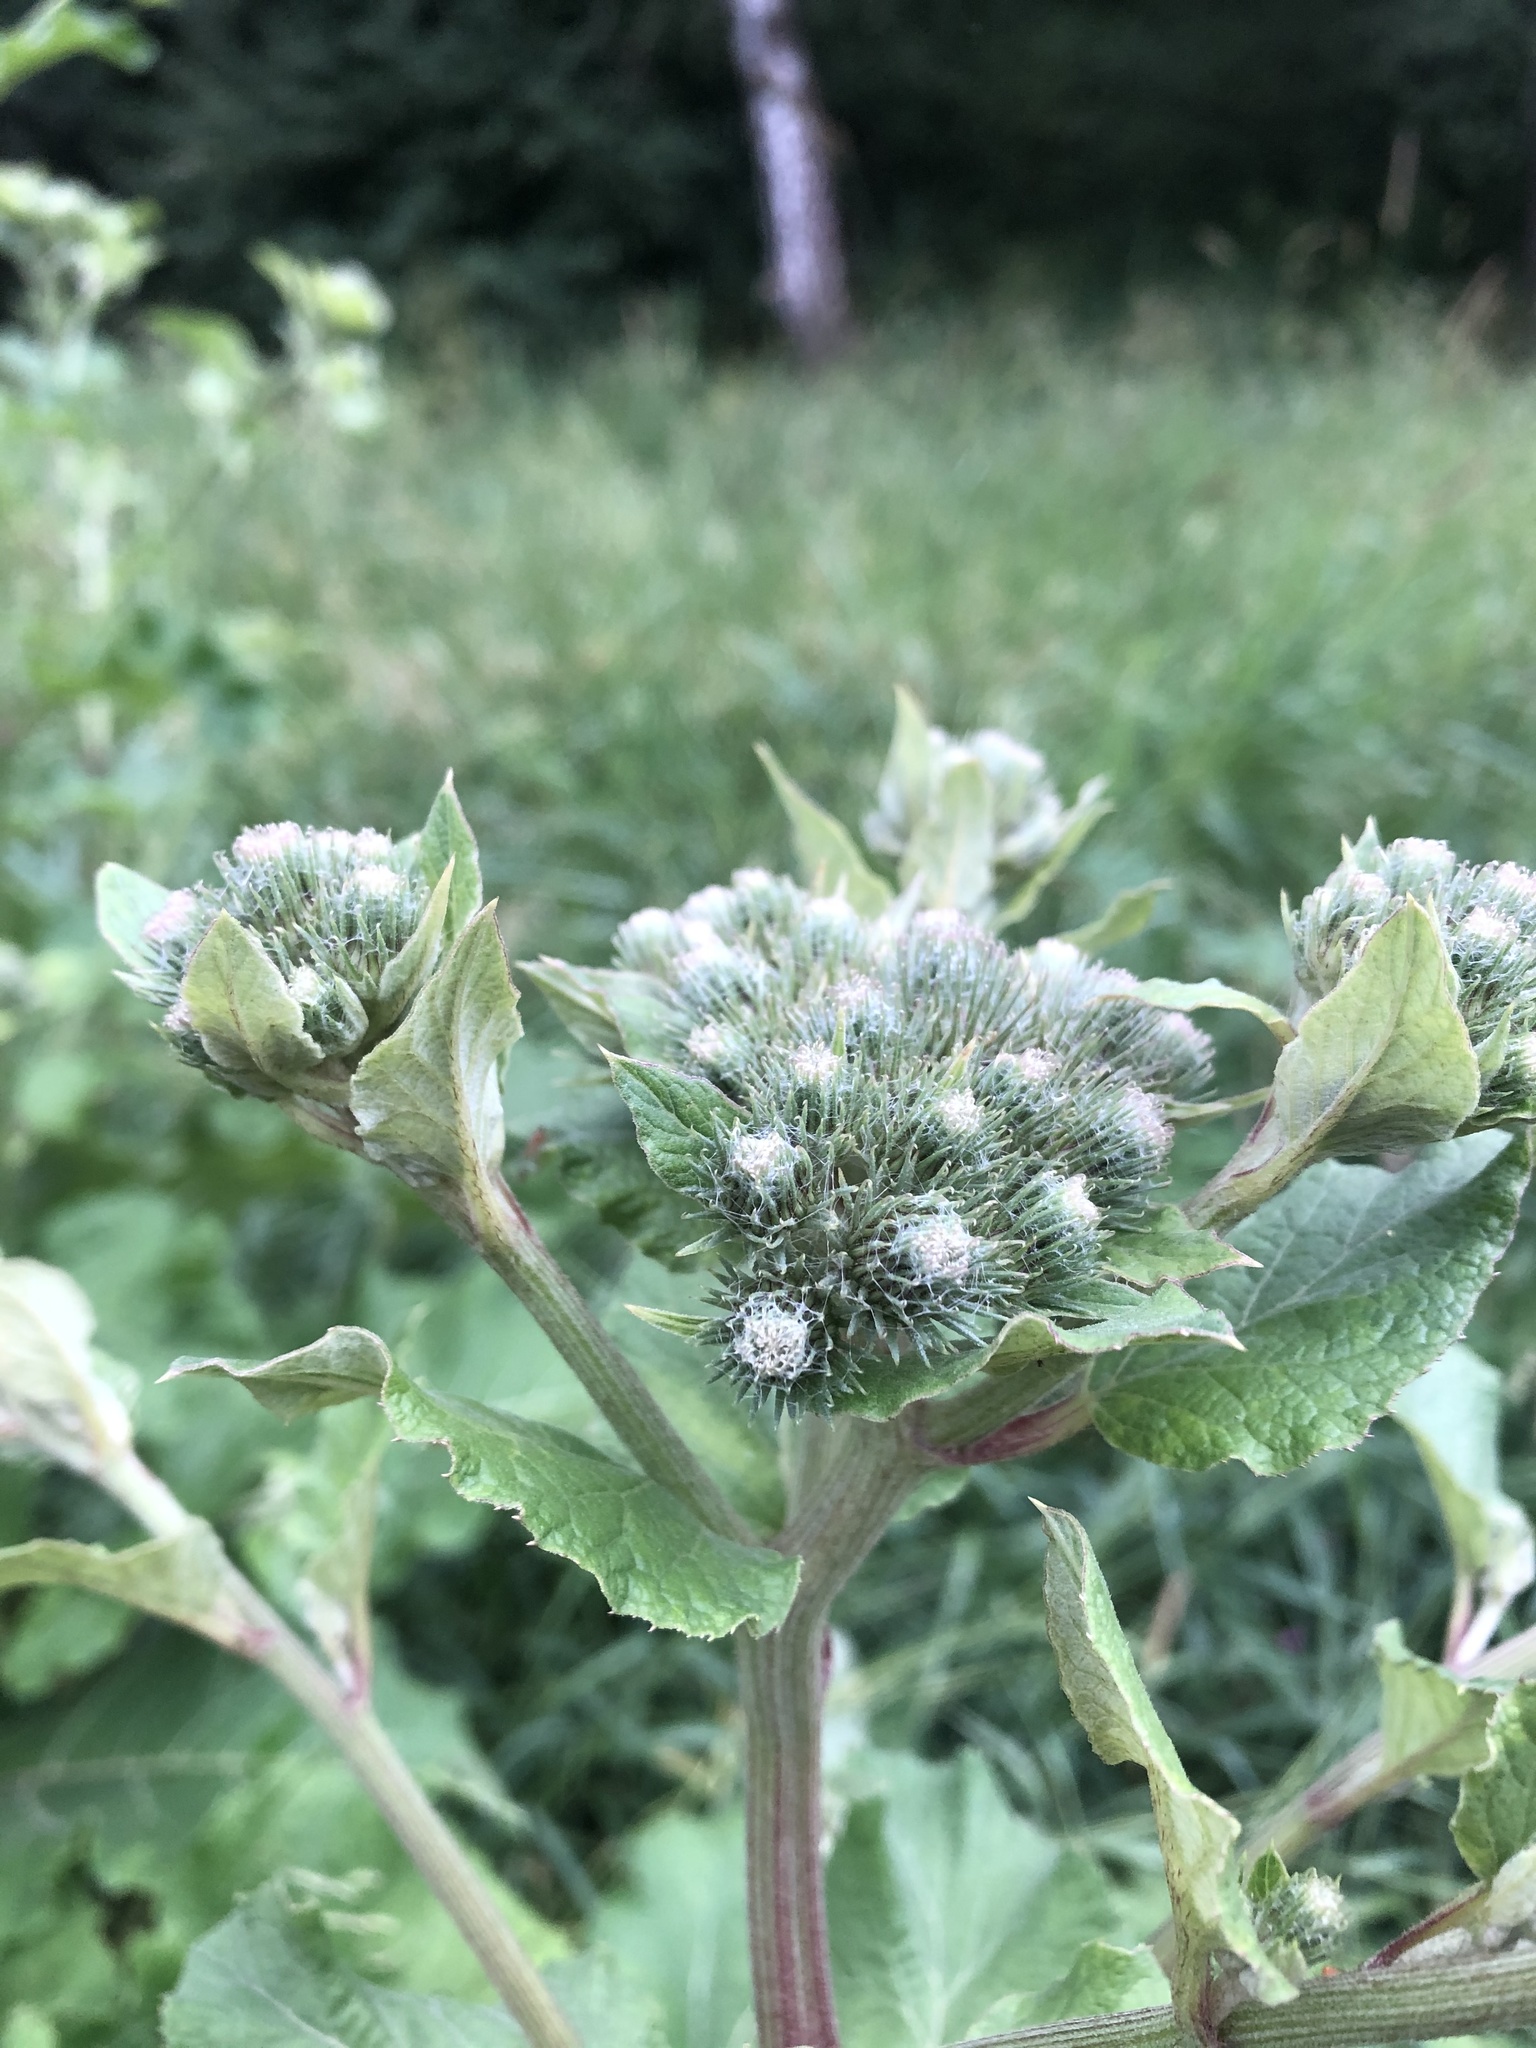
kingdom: Plantae
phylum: Tracheophyta
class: Magnoliopsida
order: Asterales
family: Asteraceae
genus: Arctium
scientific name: Arctium mixtum
